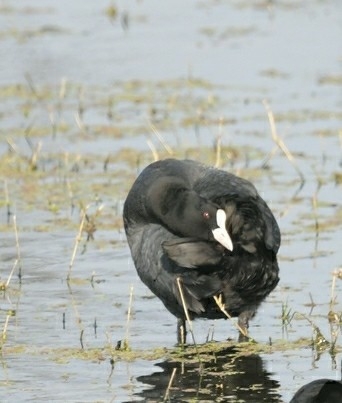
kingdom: Animalia
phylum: Chordata
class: Aves
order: Gruiformes
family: Rallidae
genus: Fulica
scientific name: Fulica atra
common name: Eurasian coot
